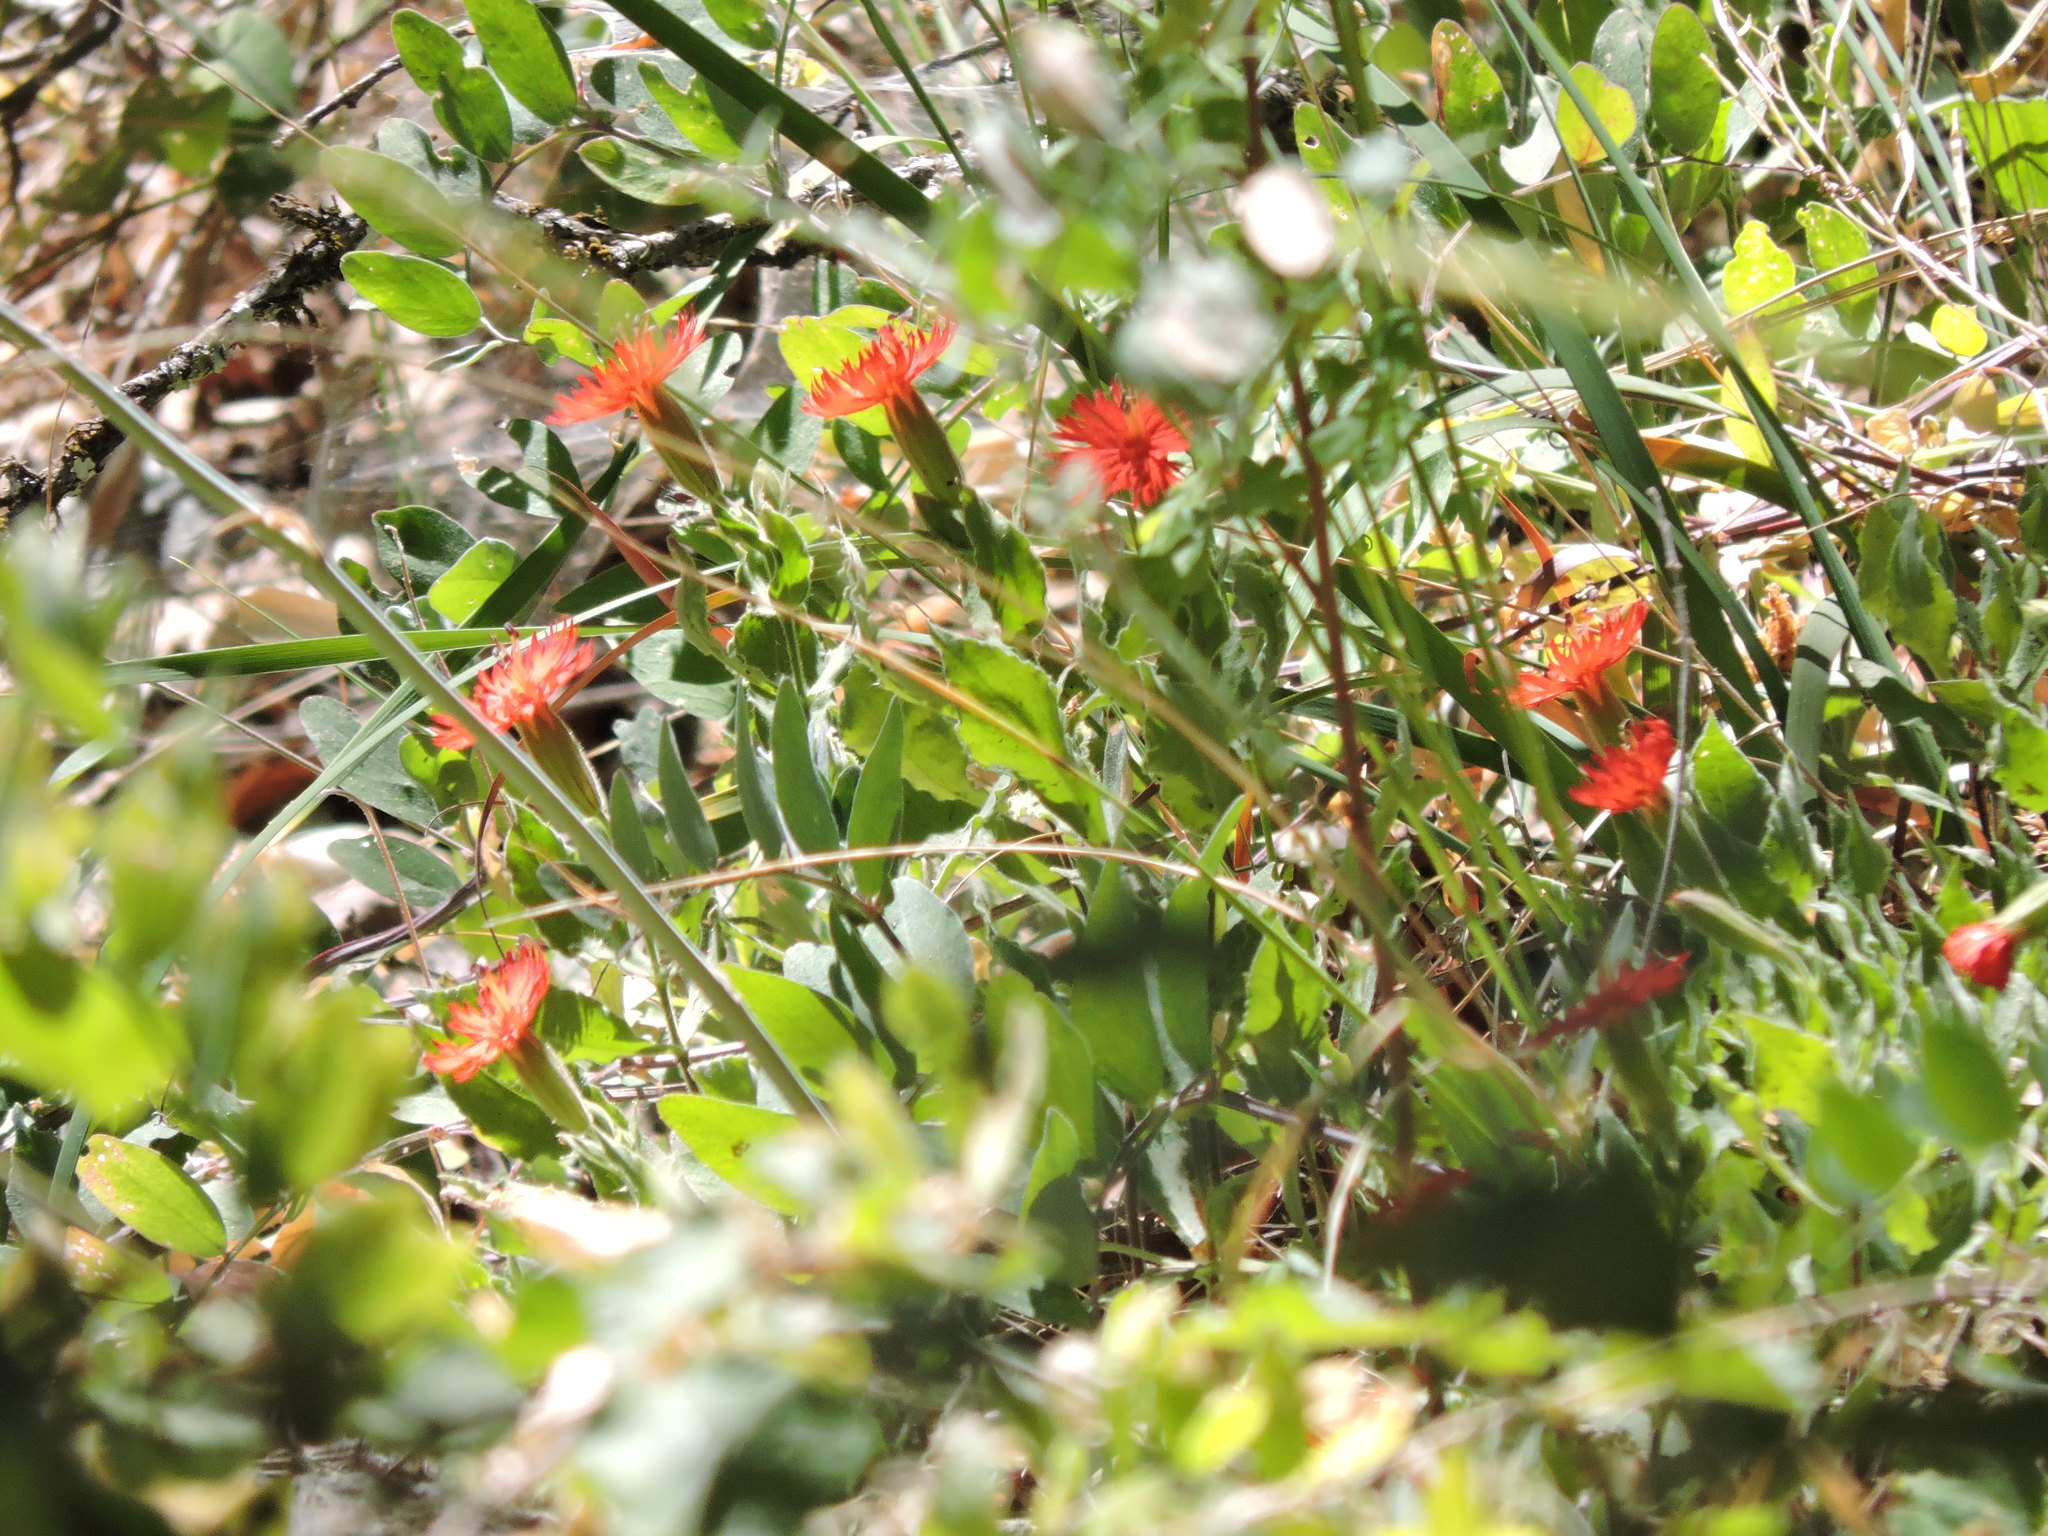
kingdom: Plantae
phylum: Tracheophyta
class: Magnoliopsida
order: Caryophyllales
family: Caryophyllaceae
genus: Silene
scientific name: Silene laciniata
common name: Indian-pink
